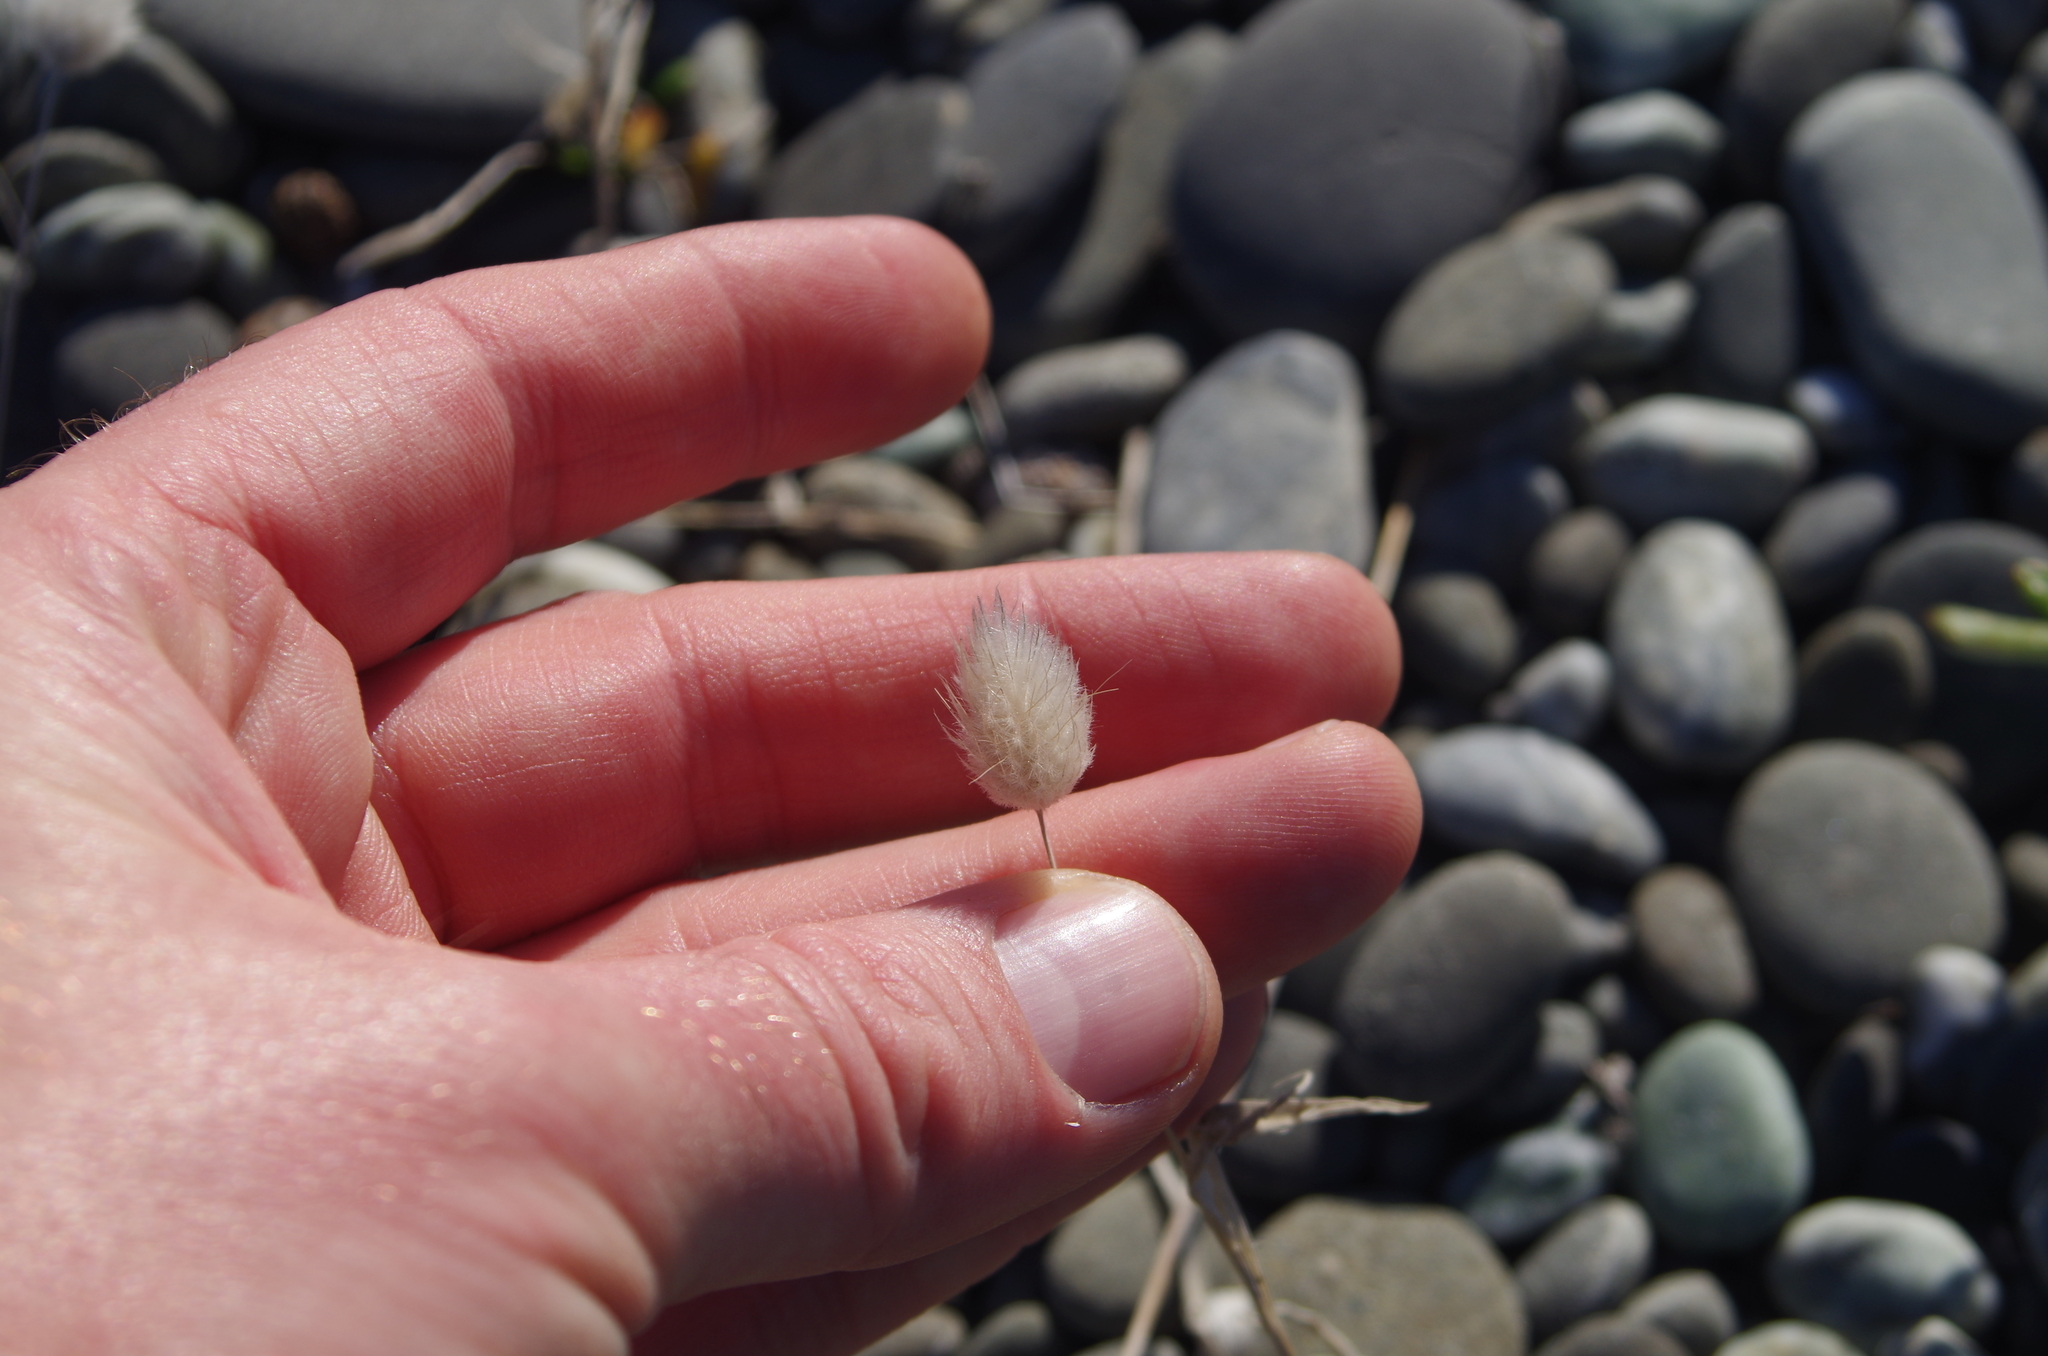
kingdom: Plantae
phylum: Tracheophyta
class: Liliopsida
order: Poales
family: Poaceae
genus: Lagurus
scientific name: Lagurus ovatus
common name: Hare's-tail
